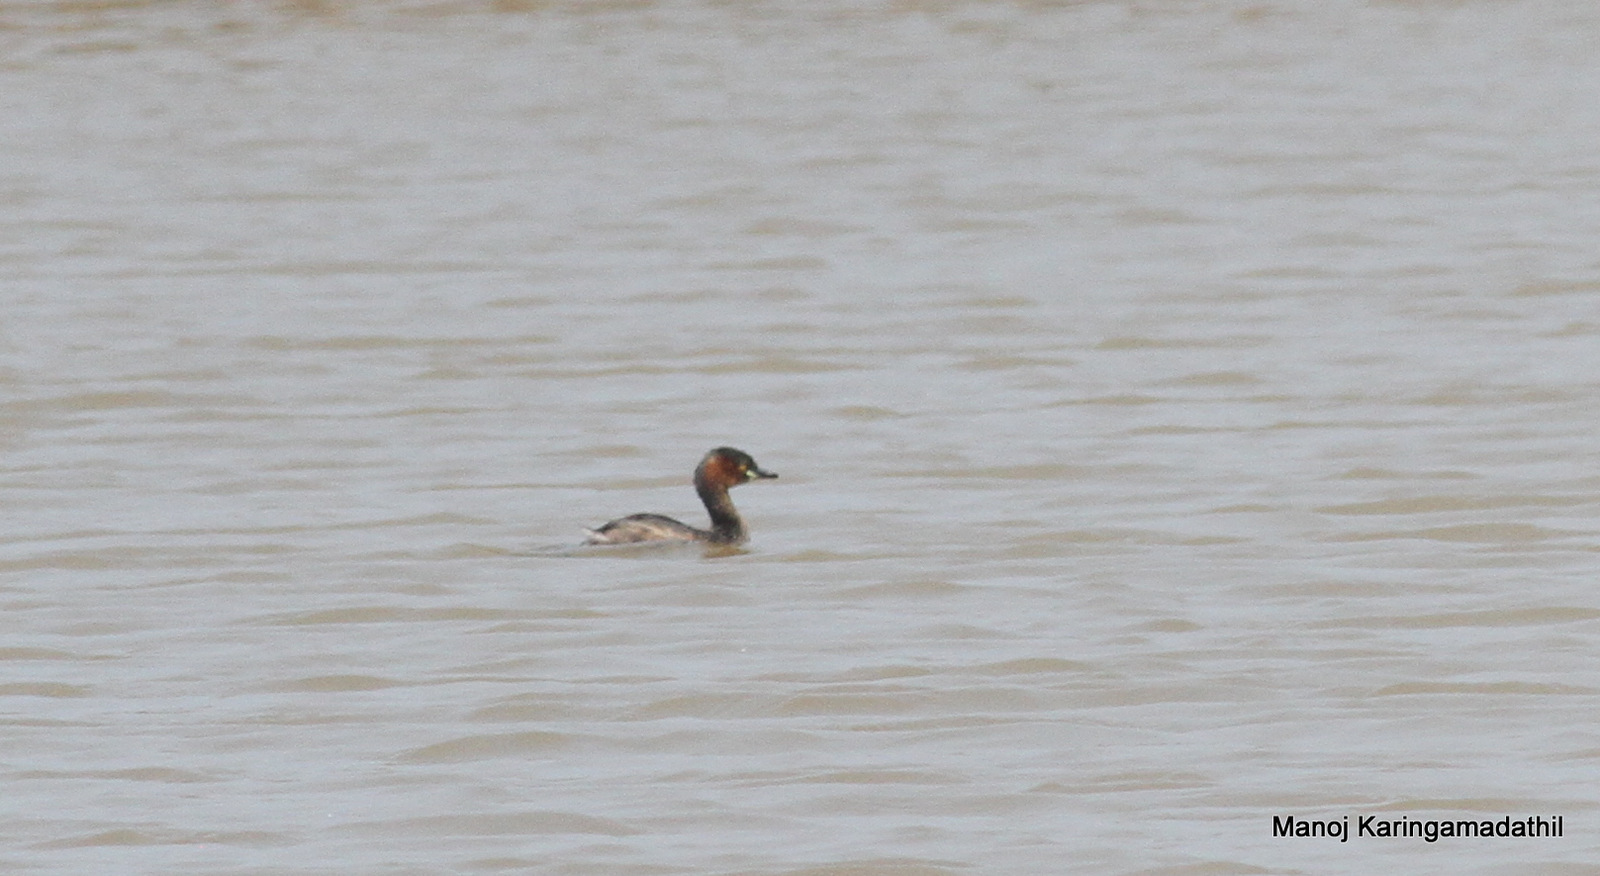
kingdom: Animalia
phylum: Chordata
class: Aves
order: Podicipediformes
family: Podicipedidae
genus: Tachybaptus
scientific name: Tachybaptus ruficollis
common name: Little grebe
